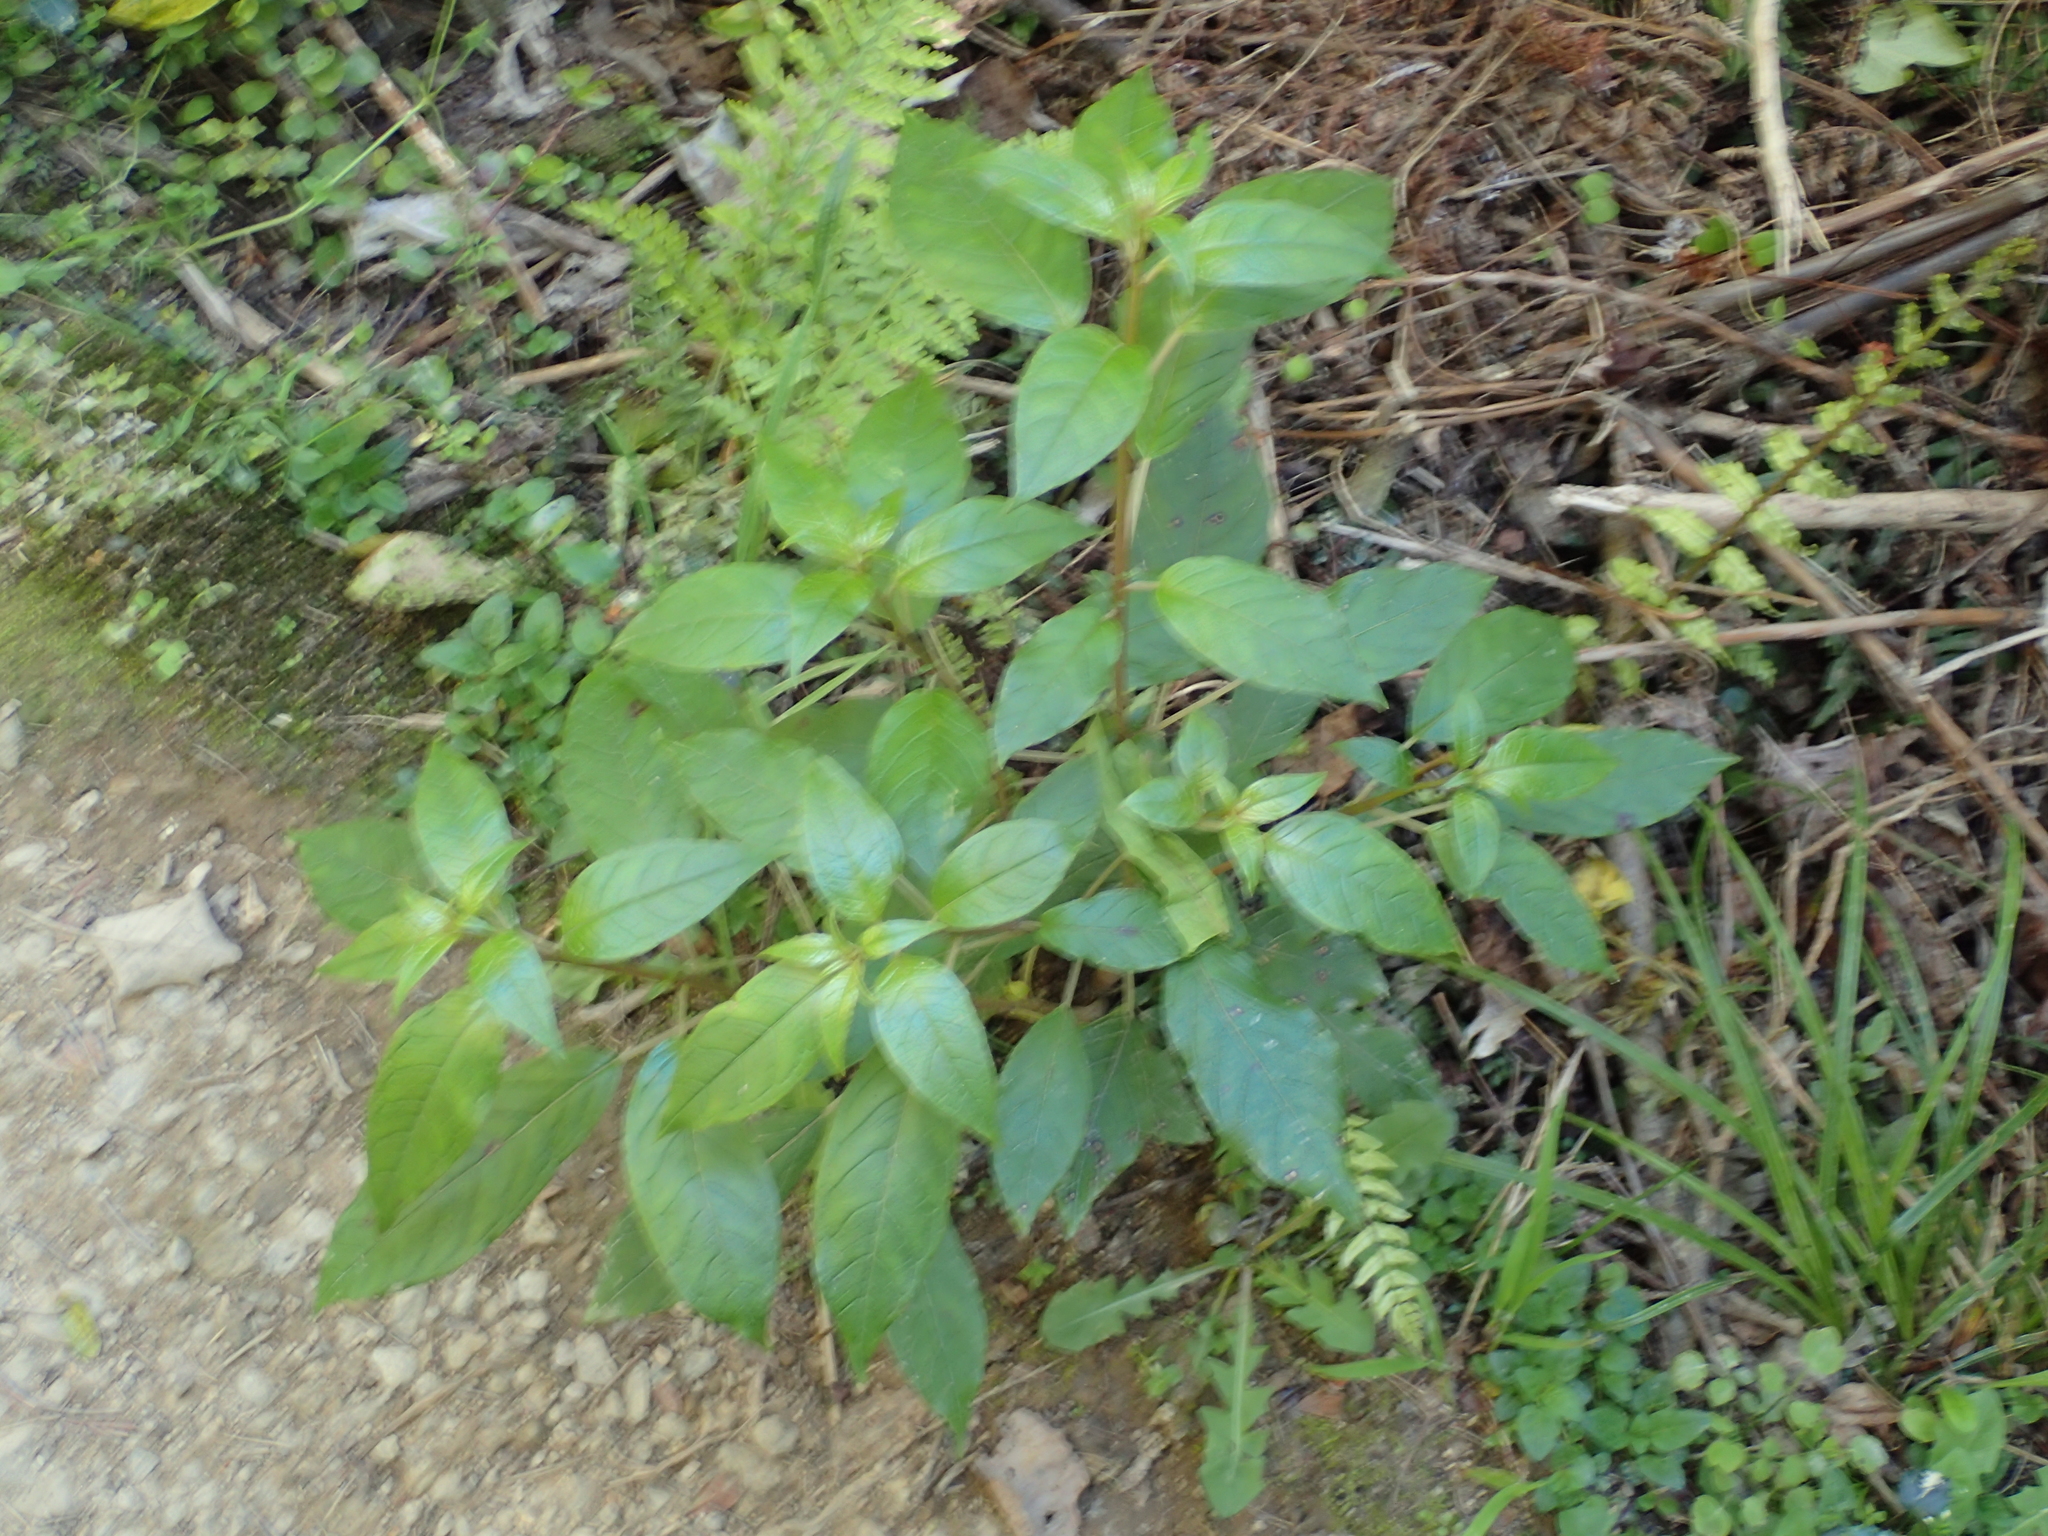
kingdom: Plantae
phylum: Tracheophyta
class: Magnoliopsida
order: Myrtales
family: Onagraceae
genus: Fuchsia
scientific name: Fuchsia excorticata
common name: Tree fuchsia
